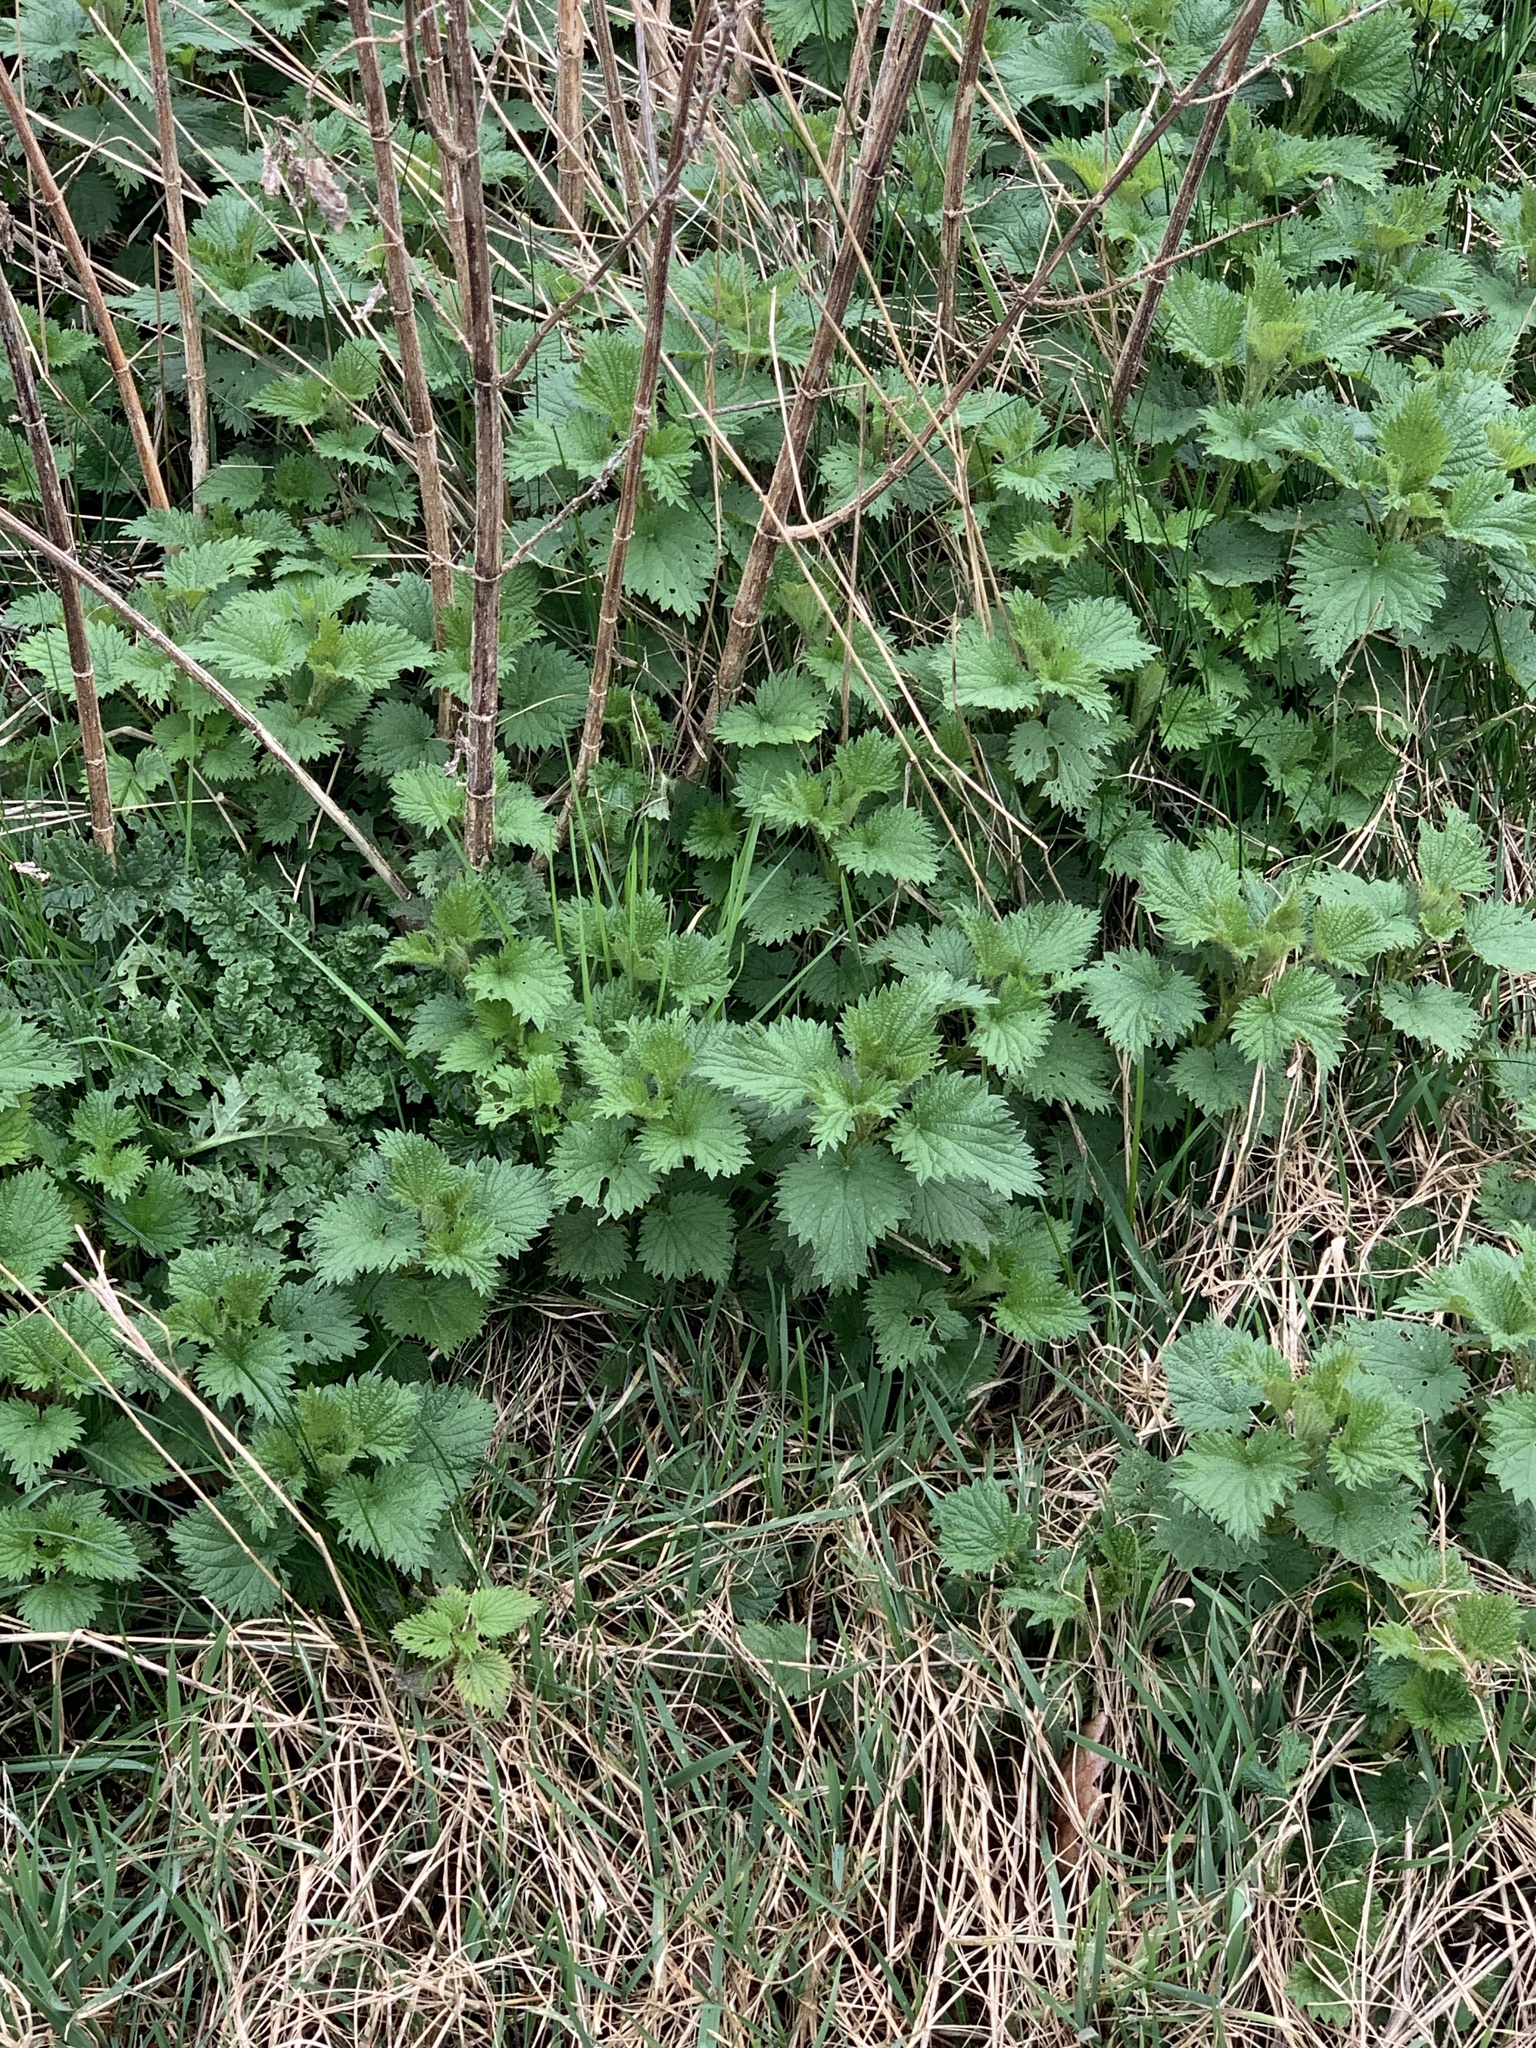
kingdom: Plantae
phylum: Tracheophyta
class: Magnoliopsida
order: Rosales
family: Urticaceae
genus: Urtica
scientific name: Urtica dioica
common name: Common nettle
